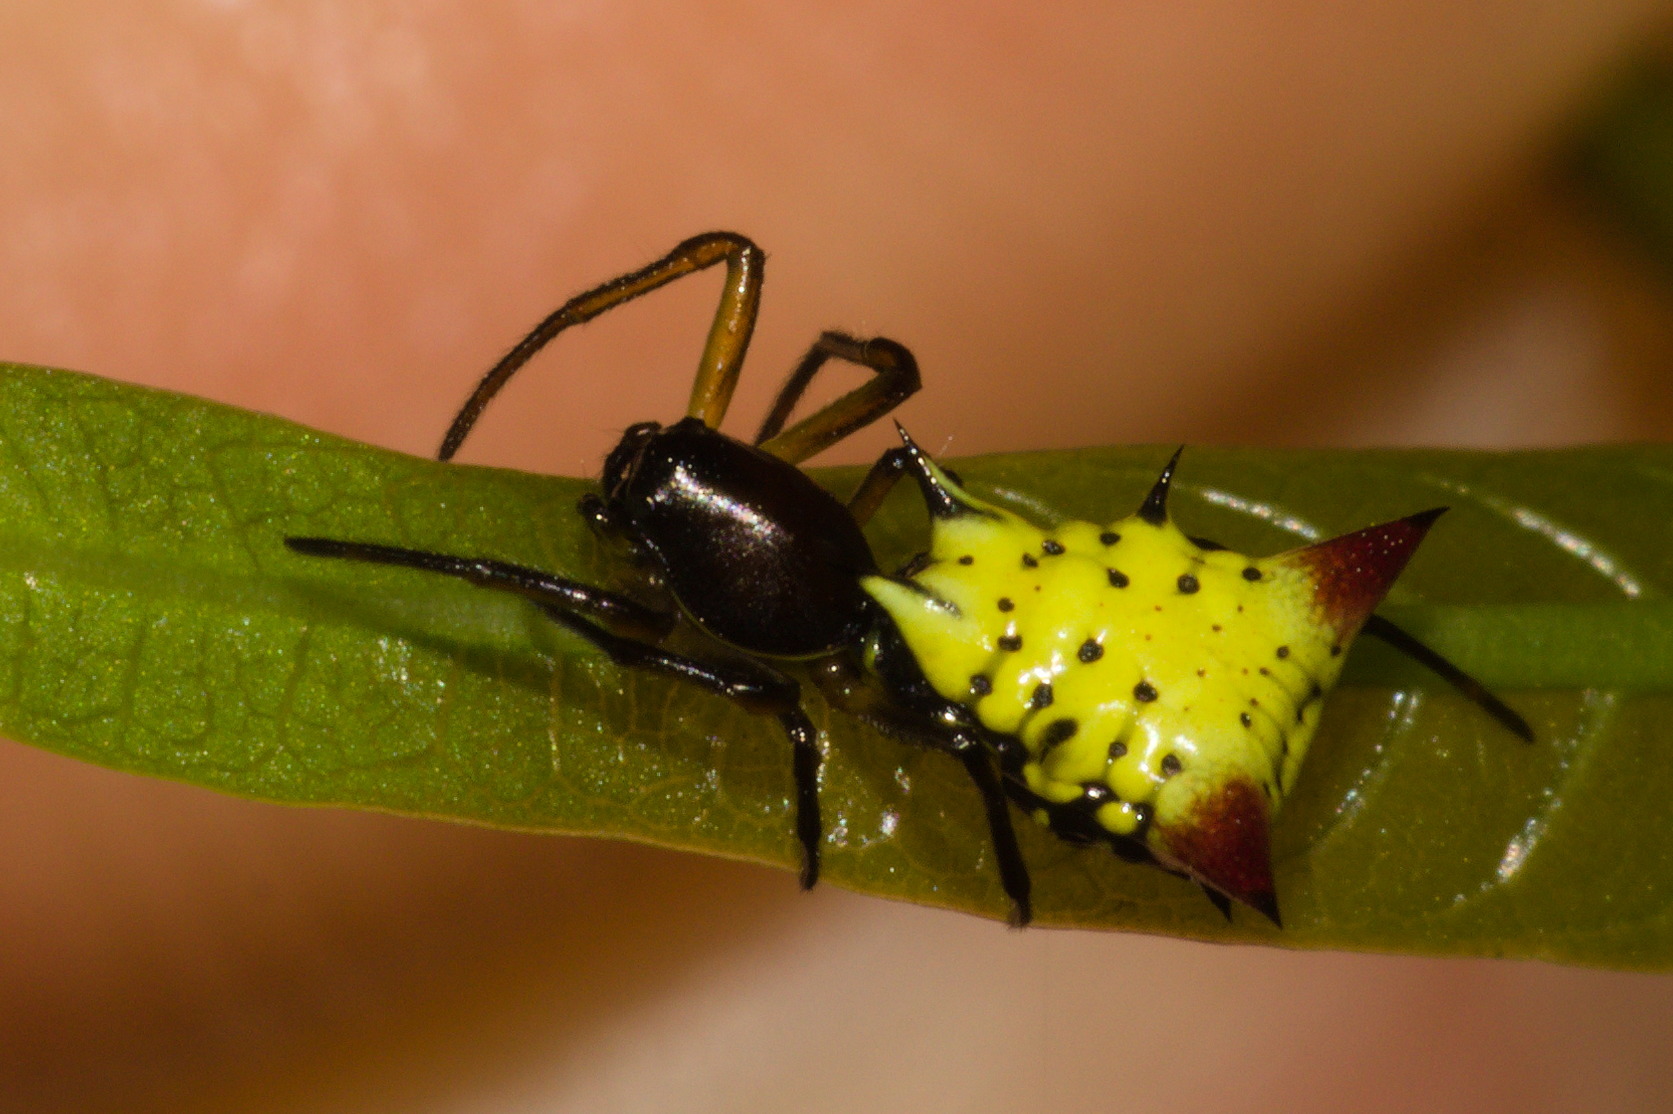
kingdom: Animalia
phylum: Arthropoda
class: Arachnida
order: Araneae
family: Araneidae
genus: Micrathena
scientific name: Micrathena flaveola
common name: Orb weavers
